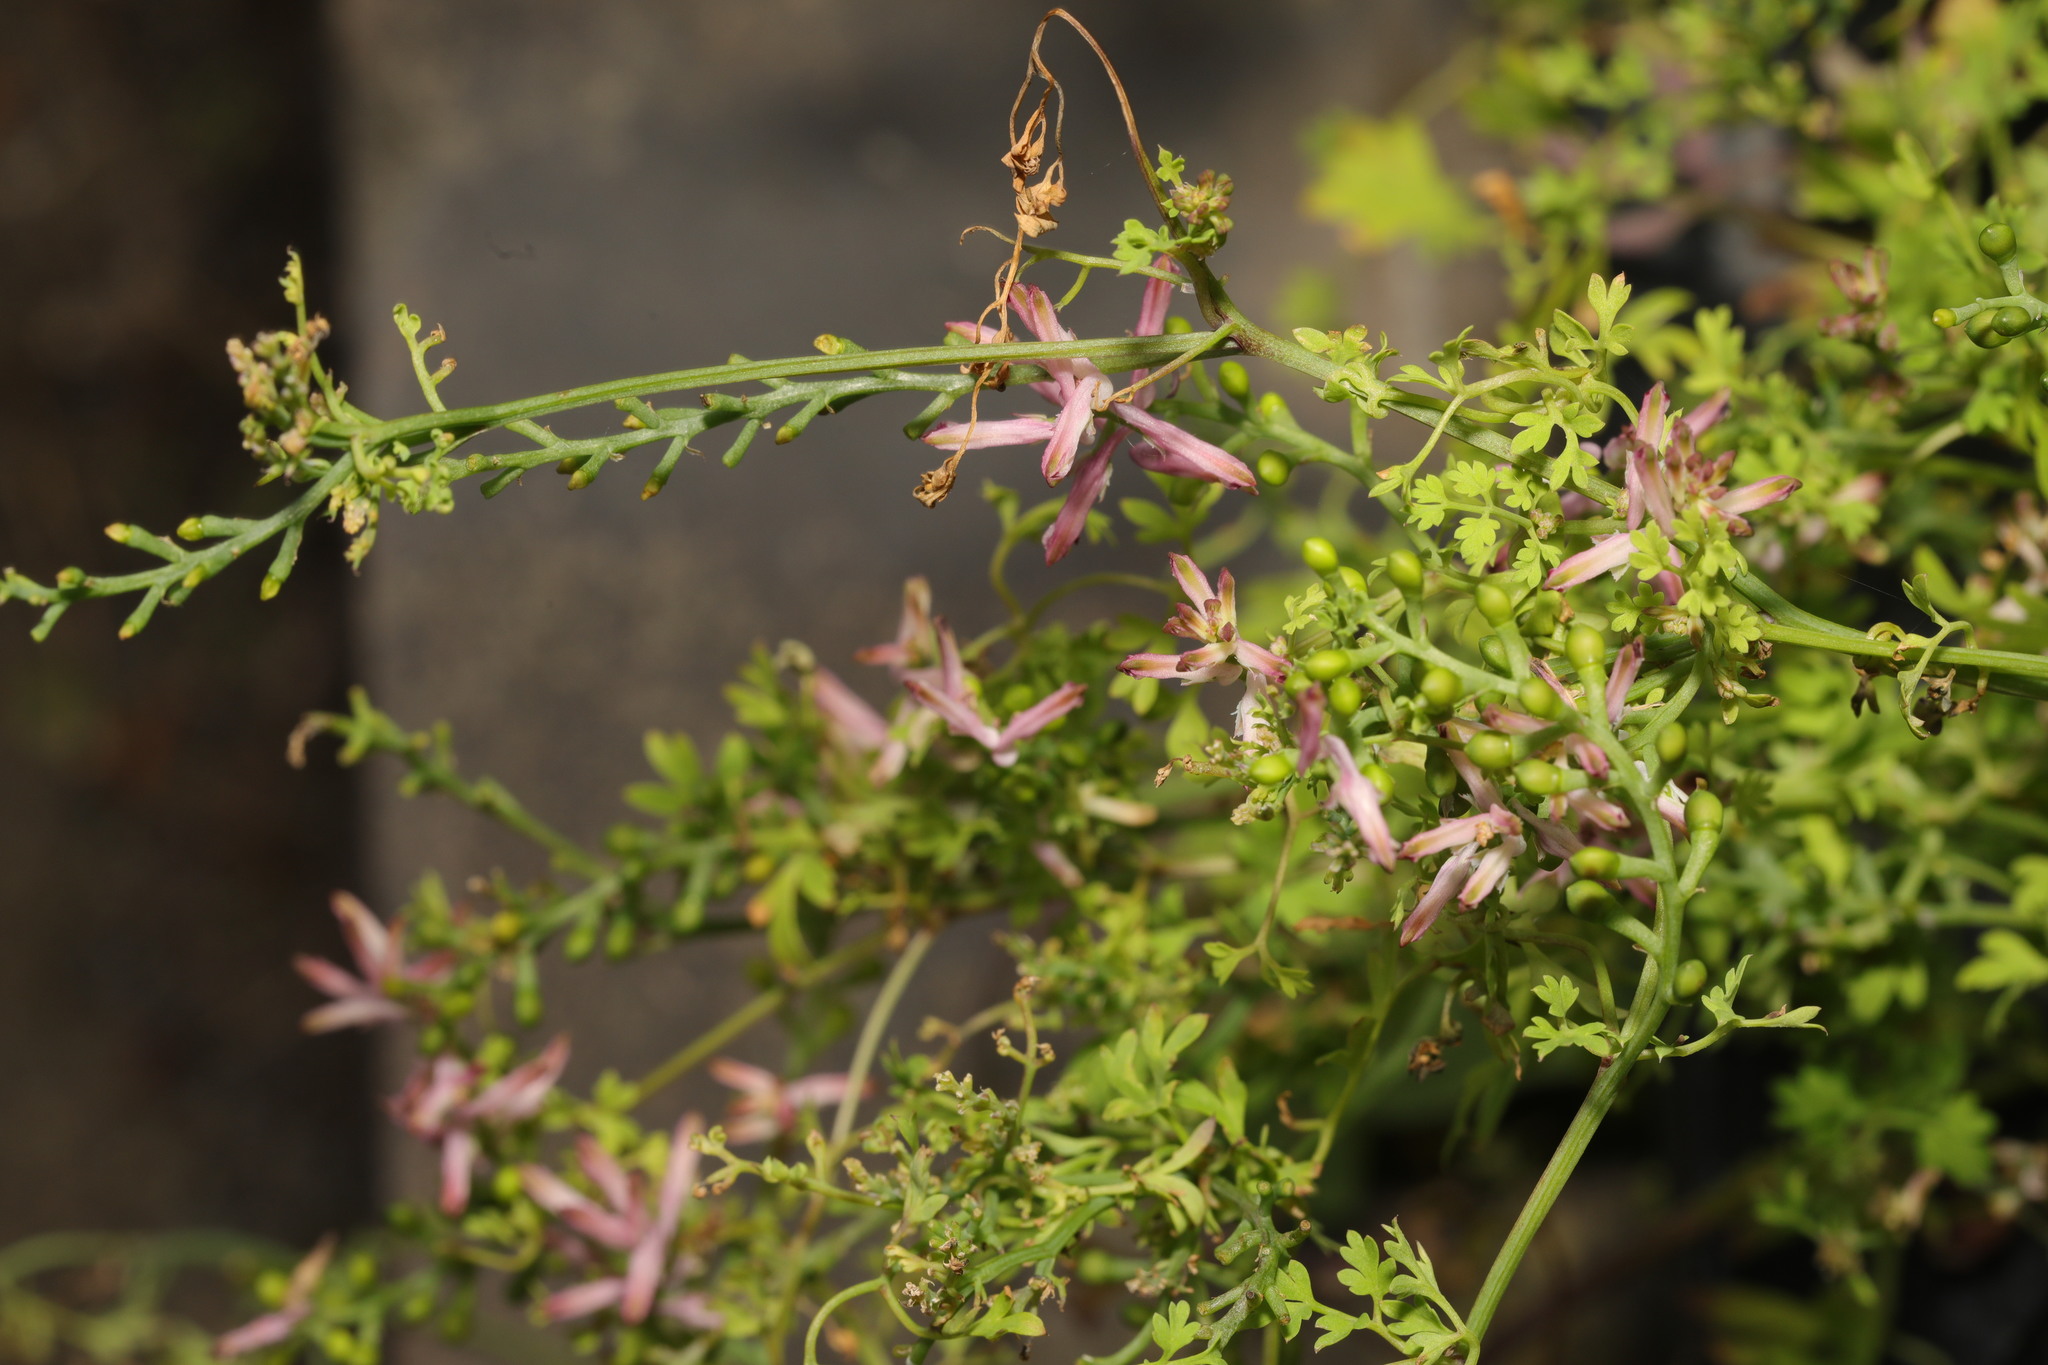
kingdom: Plantae
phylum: Tracheophyta
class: Magnoliopsida
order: Ranunculales
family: Papaveraceae
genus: Fumaria
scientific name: Fumaria bastardii
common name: Tall ramping-fumitory
